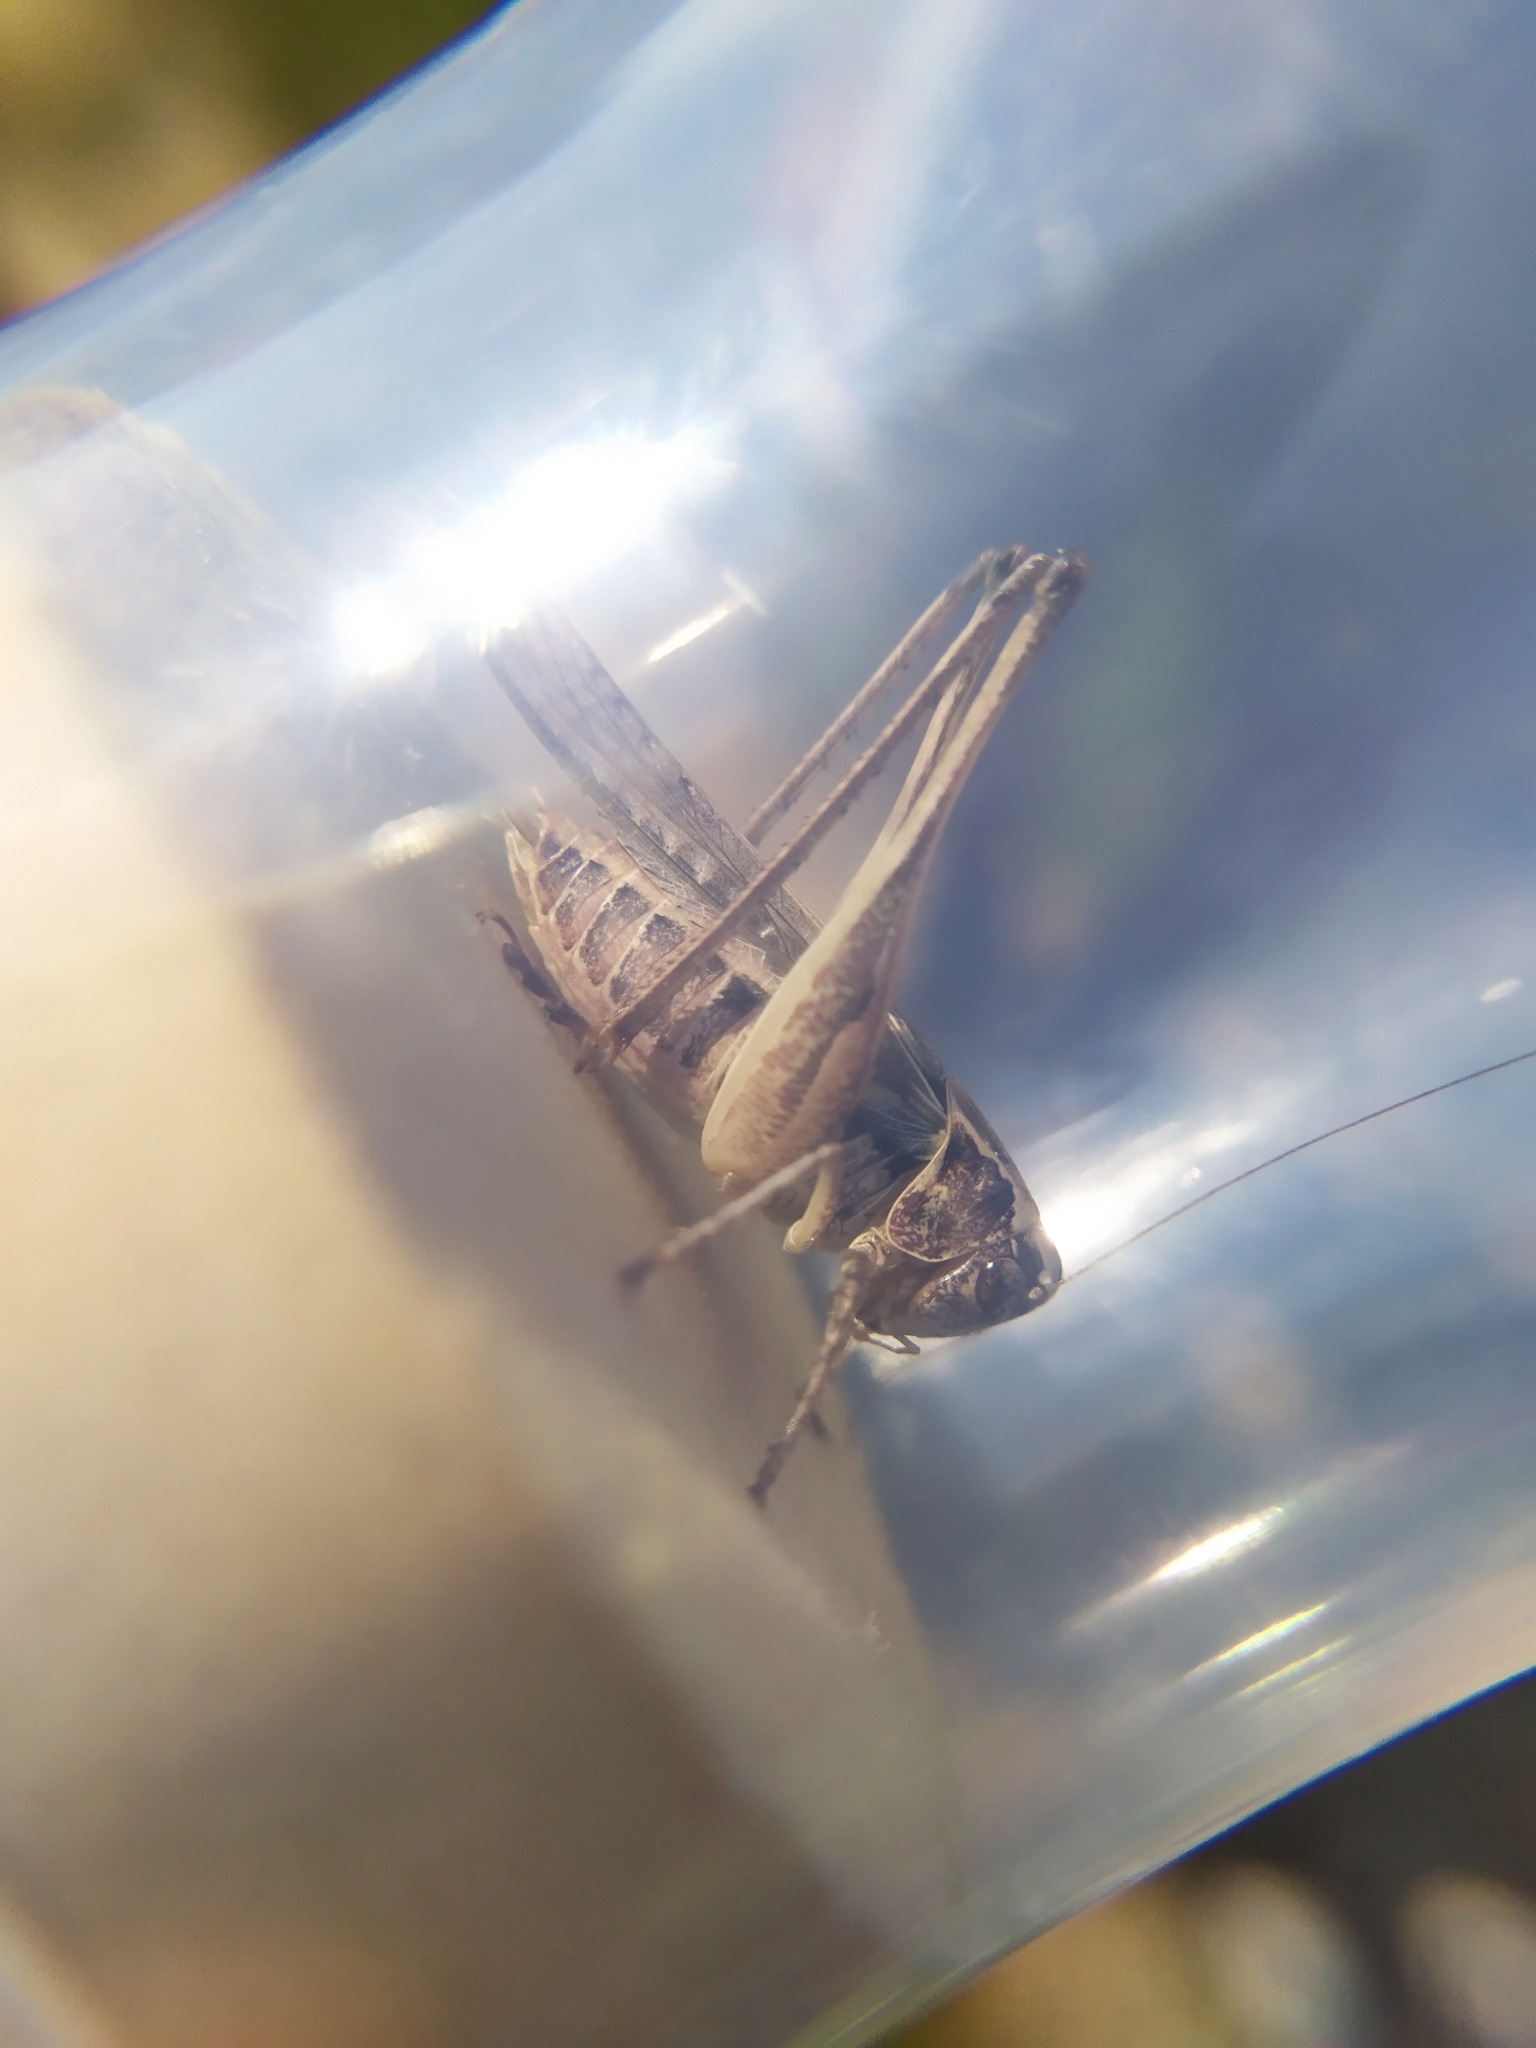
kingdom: Animalia
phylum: Arthropoda
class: Insecta
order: Orthoptera
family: Tettigoniidae
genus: Platycleis
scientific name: Platycleis affinis
